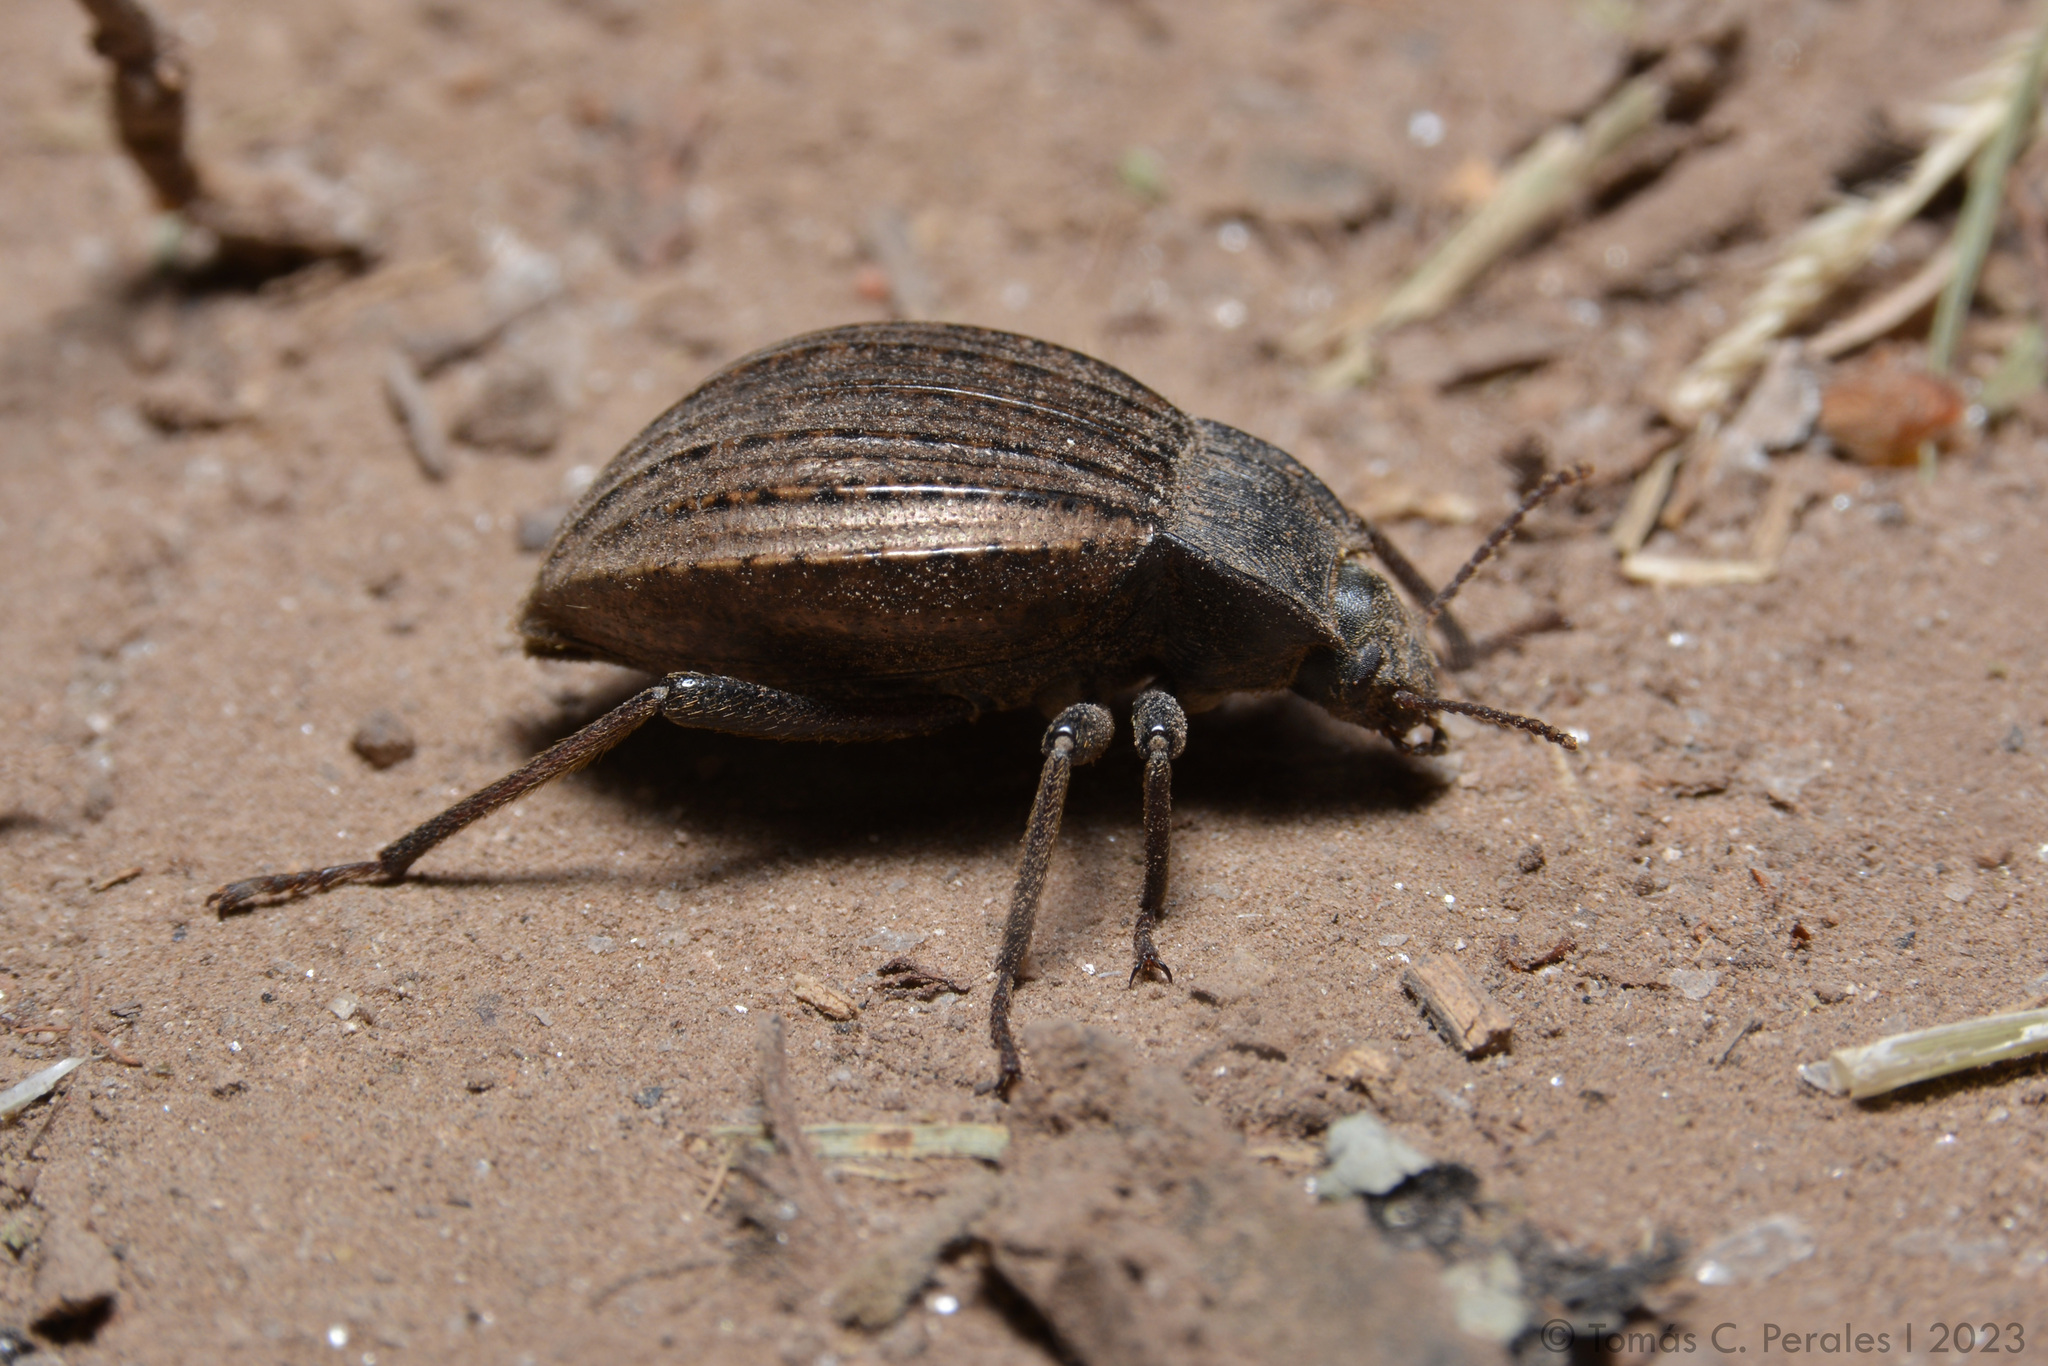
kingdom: Animalia
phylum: Arthropoda
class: Insecta
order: Coleoptera
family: Tenebrionidae
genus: Mitragenius
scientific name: Mitragenius
